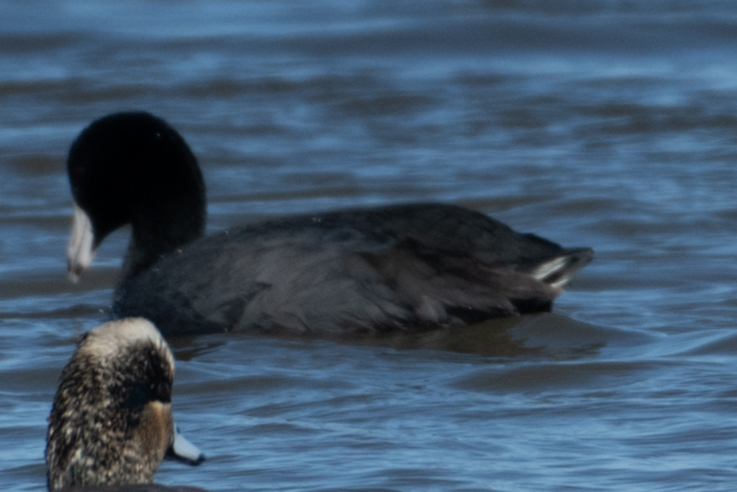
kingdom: Animalia
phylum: Chordata
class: Aves
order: Gruiformes
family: Rallidae
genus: Fulica
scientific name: Fulica americana
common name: American coot
